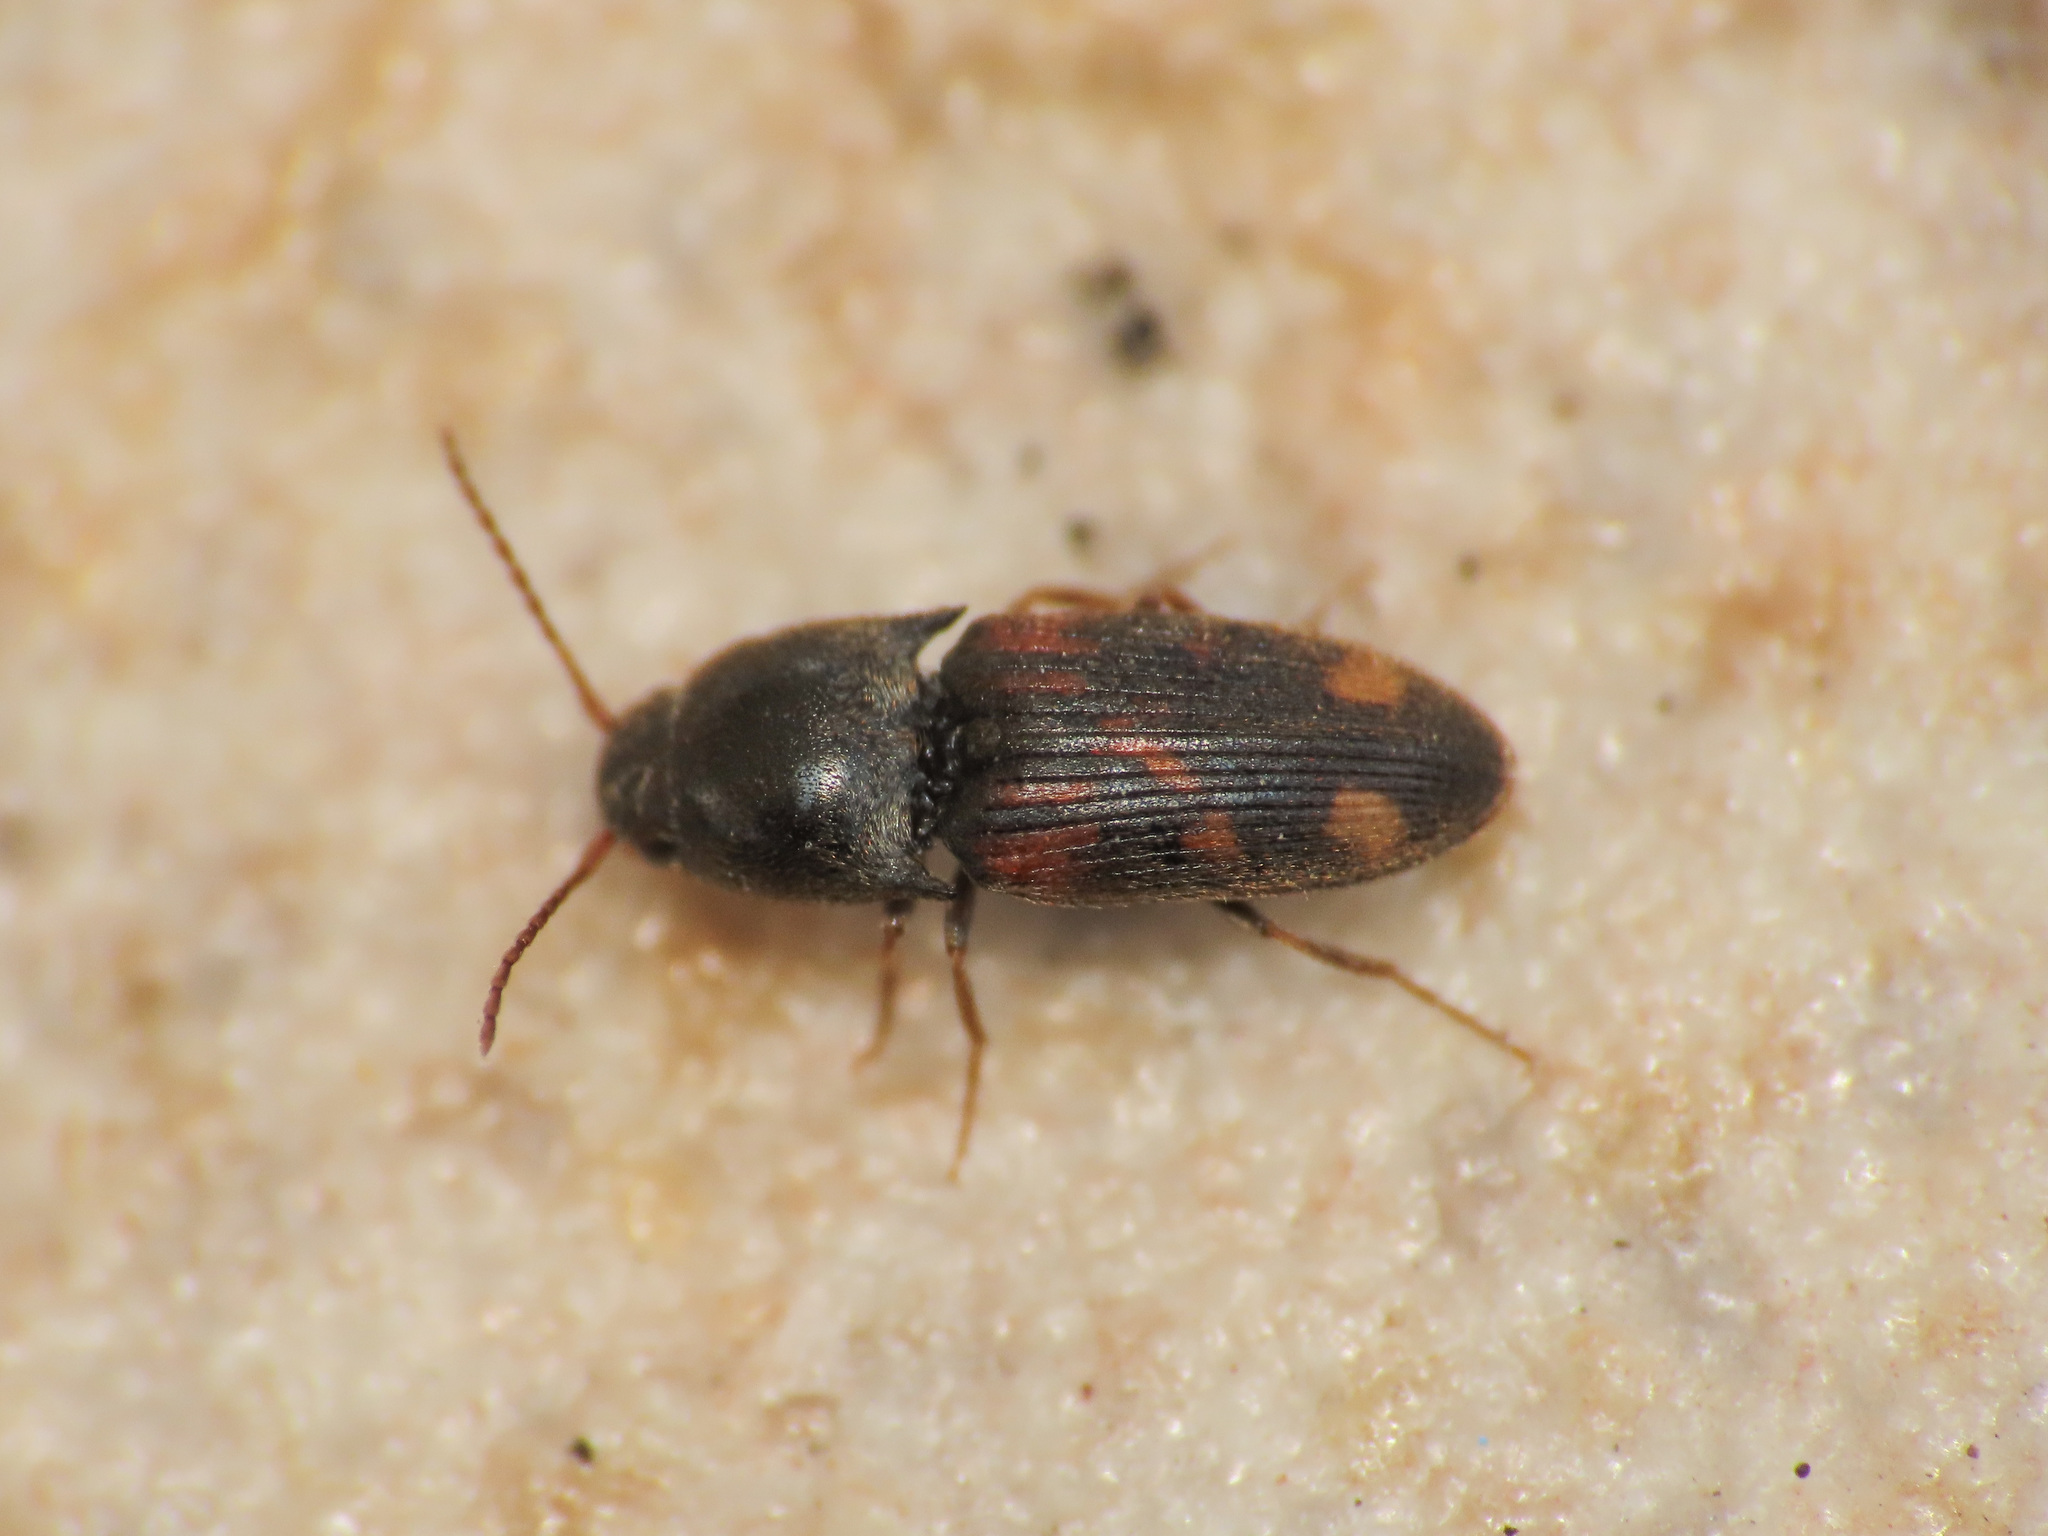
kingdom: Animalia
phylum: Arthropoda
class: Insecta
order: Coleoptera
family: Elateridae
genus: Drasterius
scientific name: Drasterius bimaculatus
